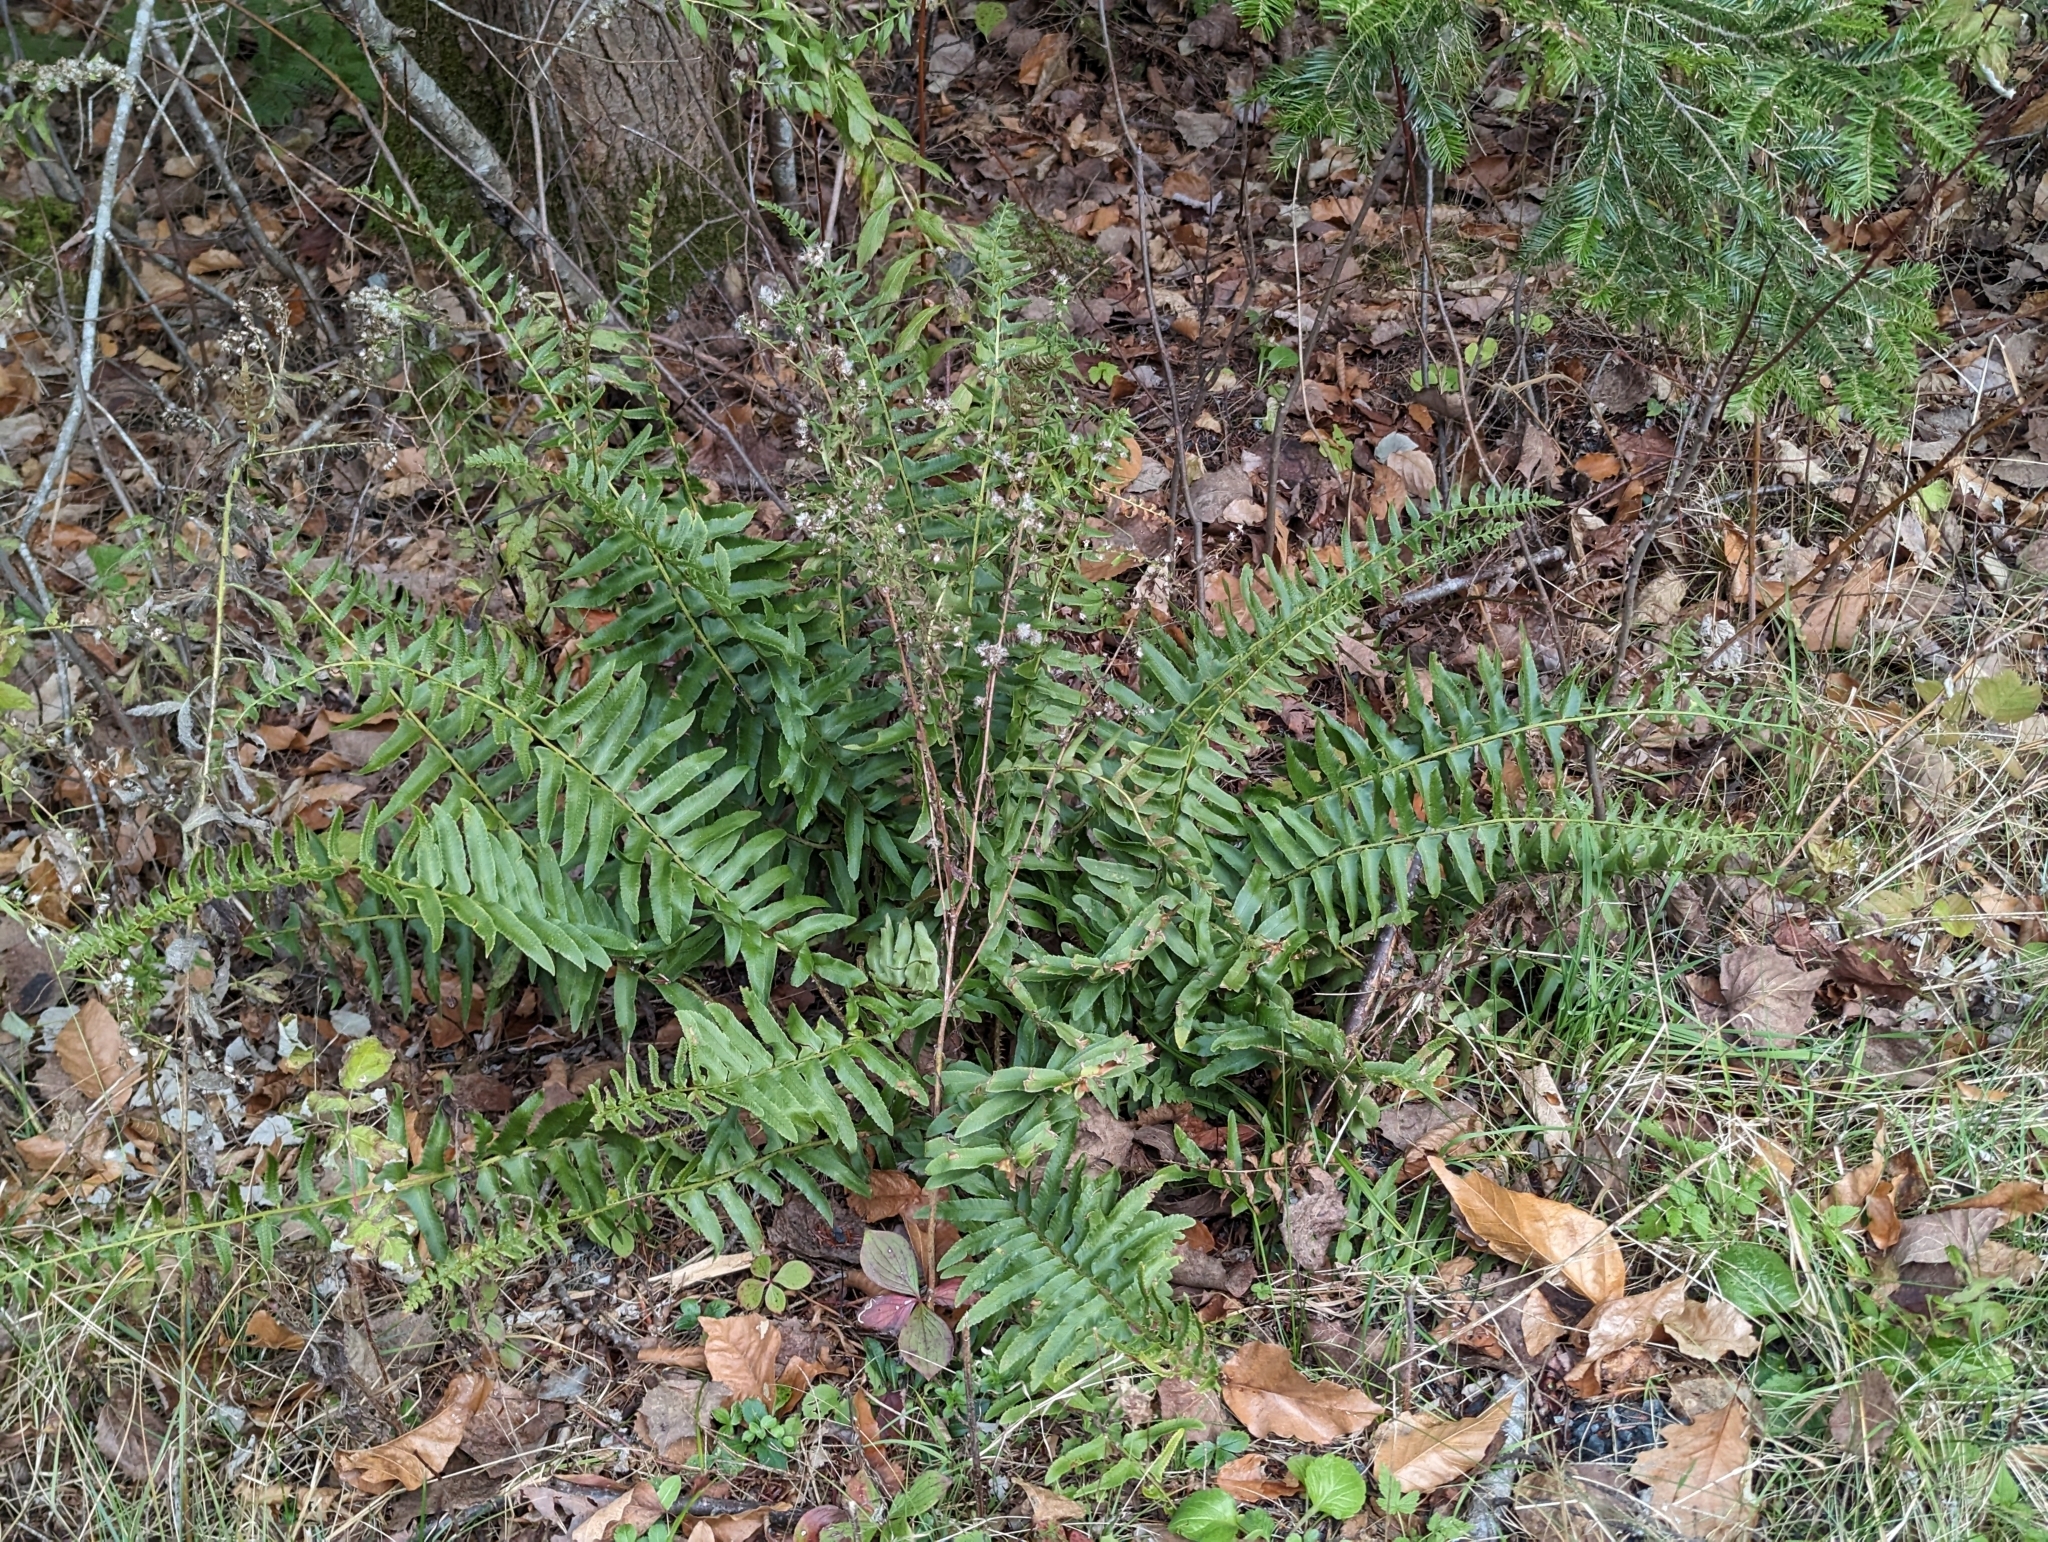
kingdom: Plantae
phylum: Tracheophyta
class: Polypodiopsida
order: Polypodiales
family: Dryopteridaceae
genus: Polystichum
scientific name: Polystichum acrostichoides
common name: Christmas fern
